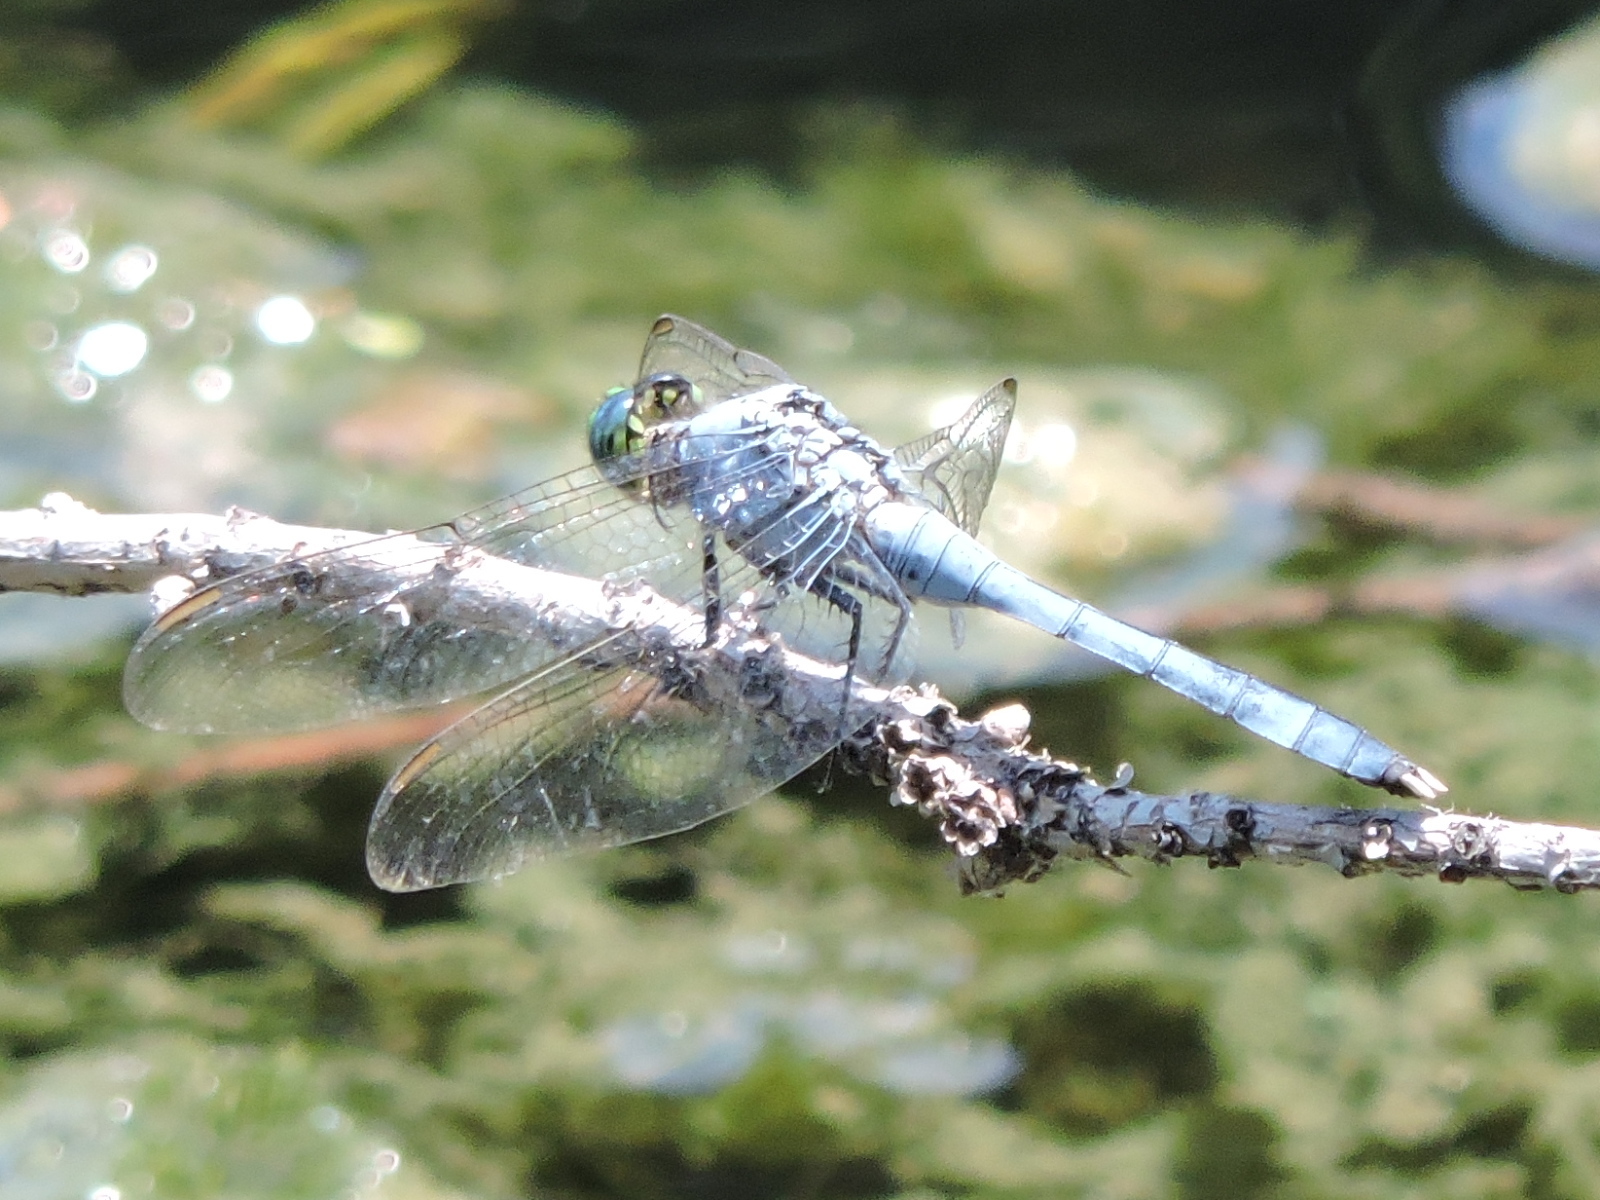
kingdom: Animalia
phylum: Arthropoda
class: Insecta
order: Odonata
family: Libellulidae
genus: Erythemis
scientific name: Erythemis simplicicollis
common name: Eastern pondhawk
